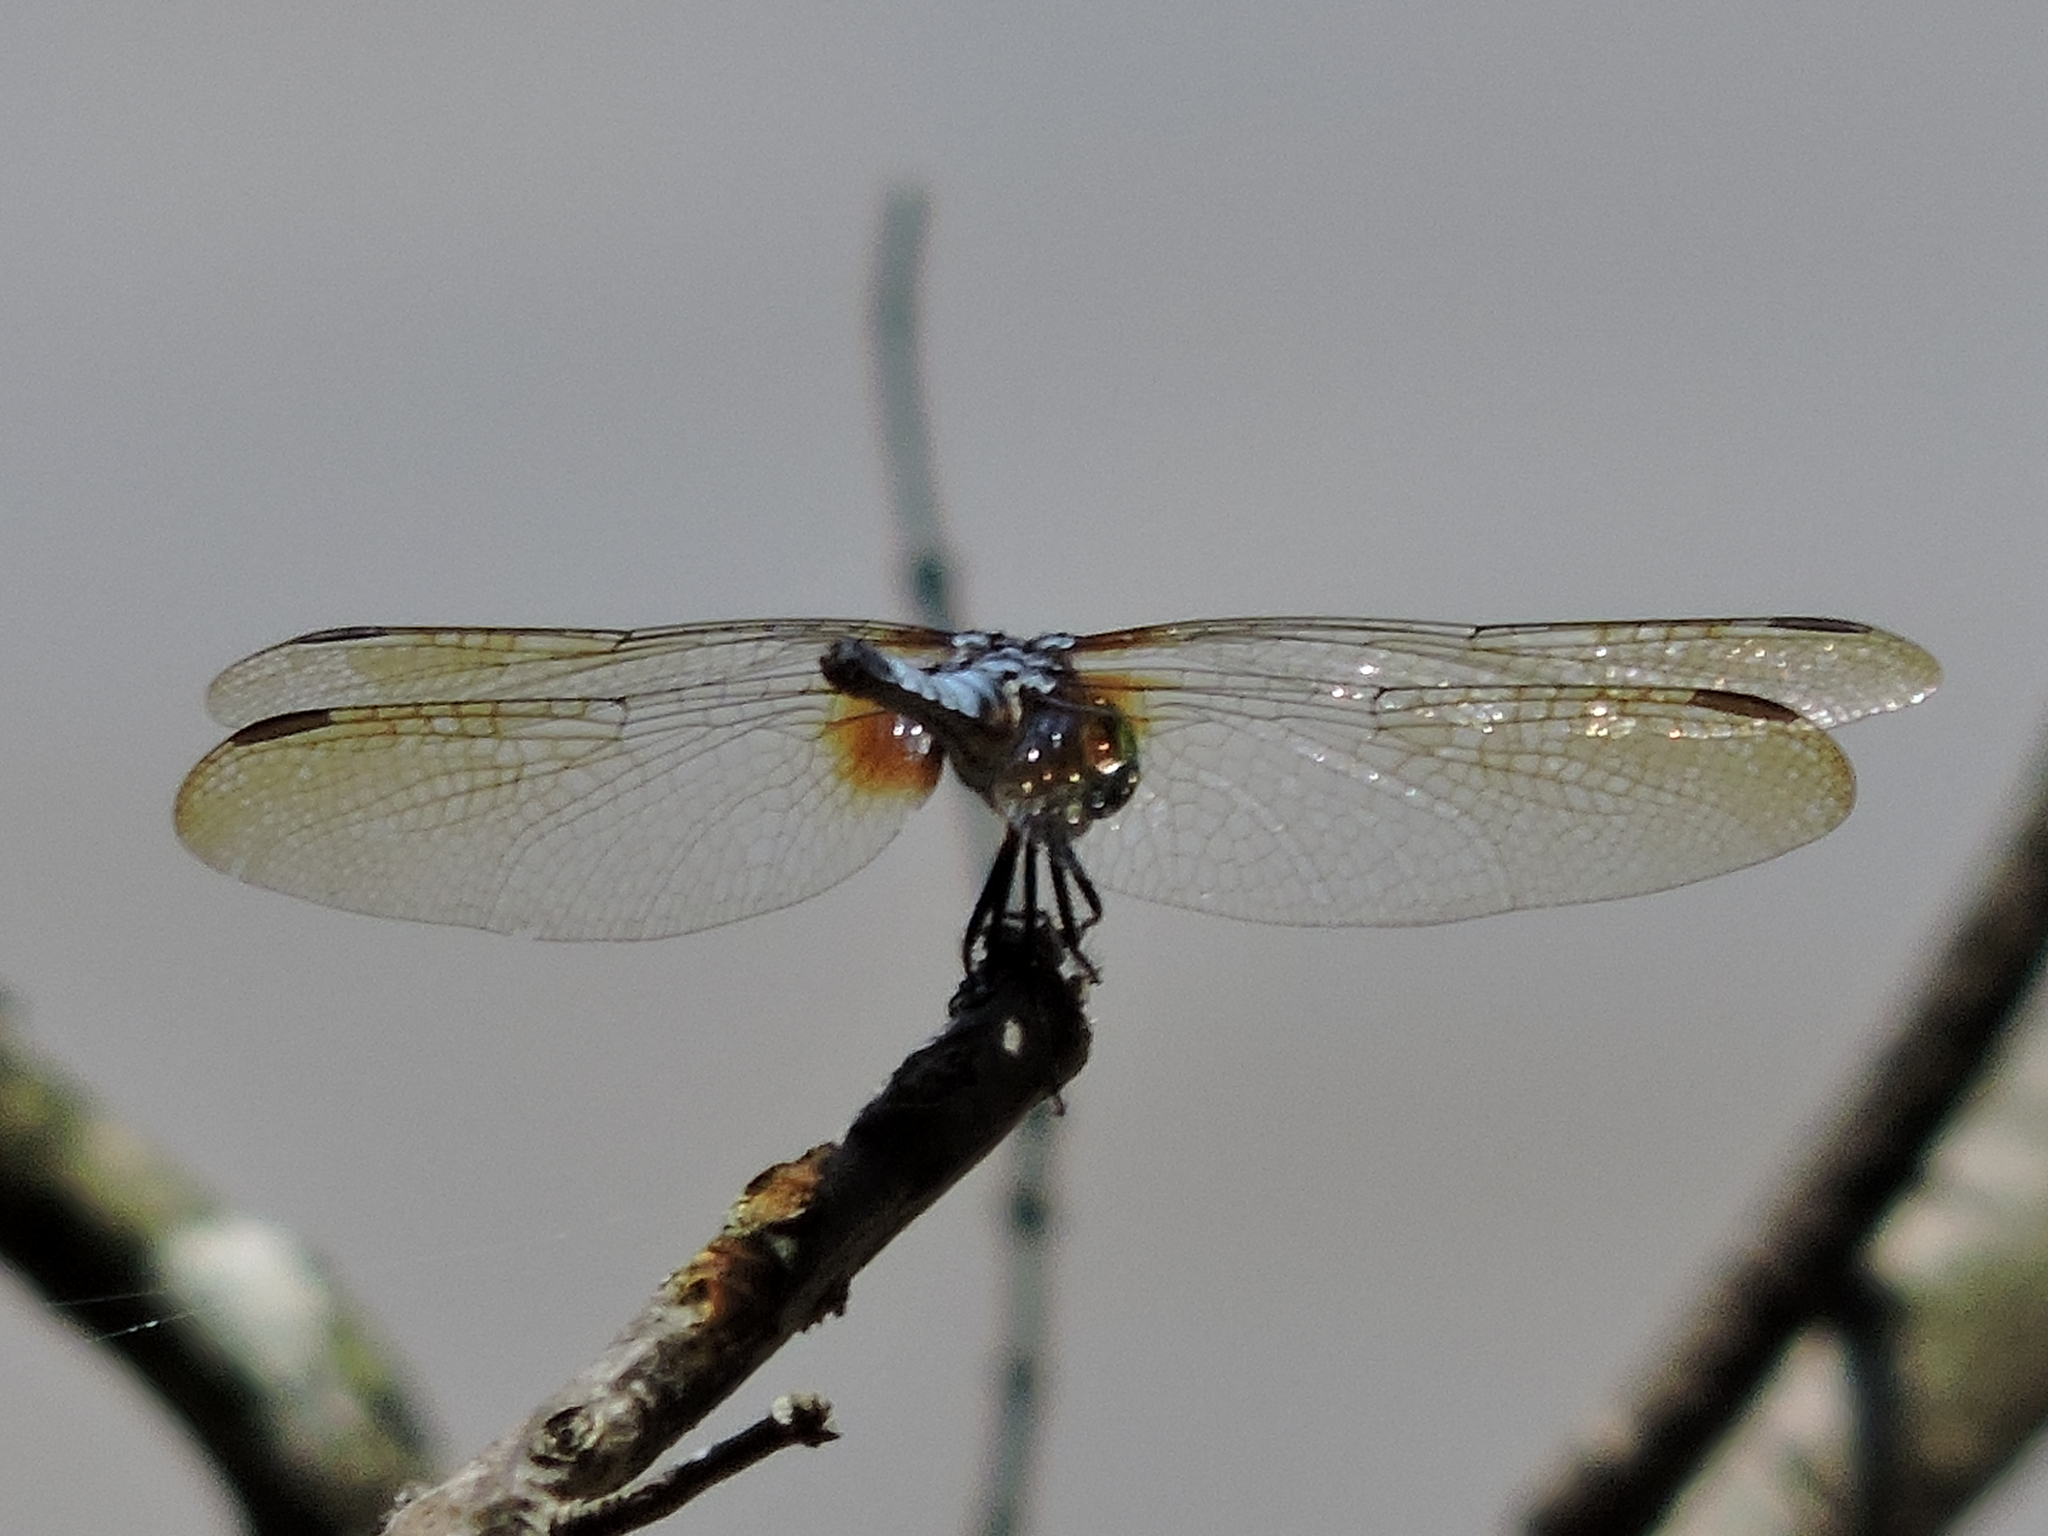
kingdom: Animalia
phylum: Arthropoda
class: Insecta
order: Odonata
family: Libellulidae
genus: Pachydiplax
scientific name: Pachydiplax longipennis
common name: Blue dasher
